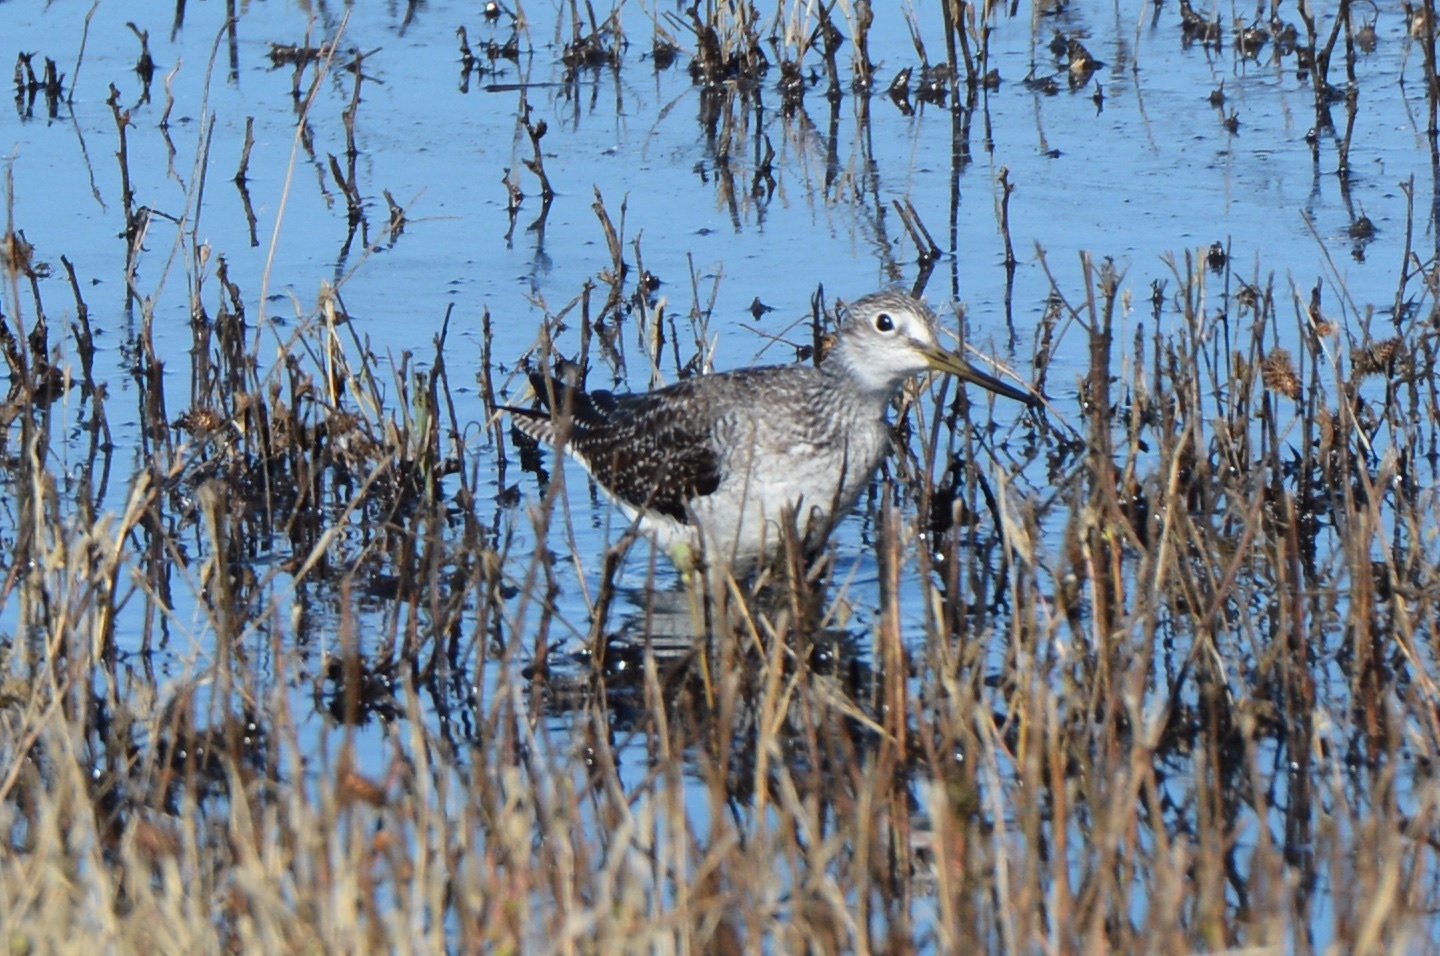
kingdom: Animalia
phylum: Chordata
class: Aves
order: Charadriiformes
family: Scolopacidae
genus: Tringa
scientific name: Tringa melanoleuca
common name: Greater yellowlegs
